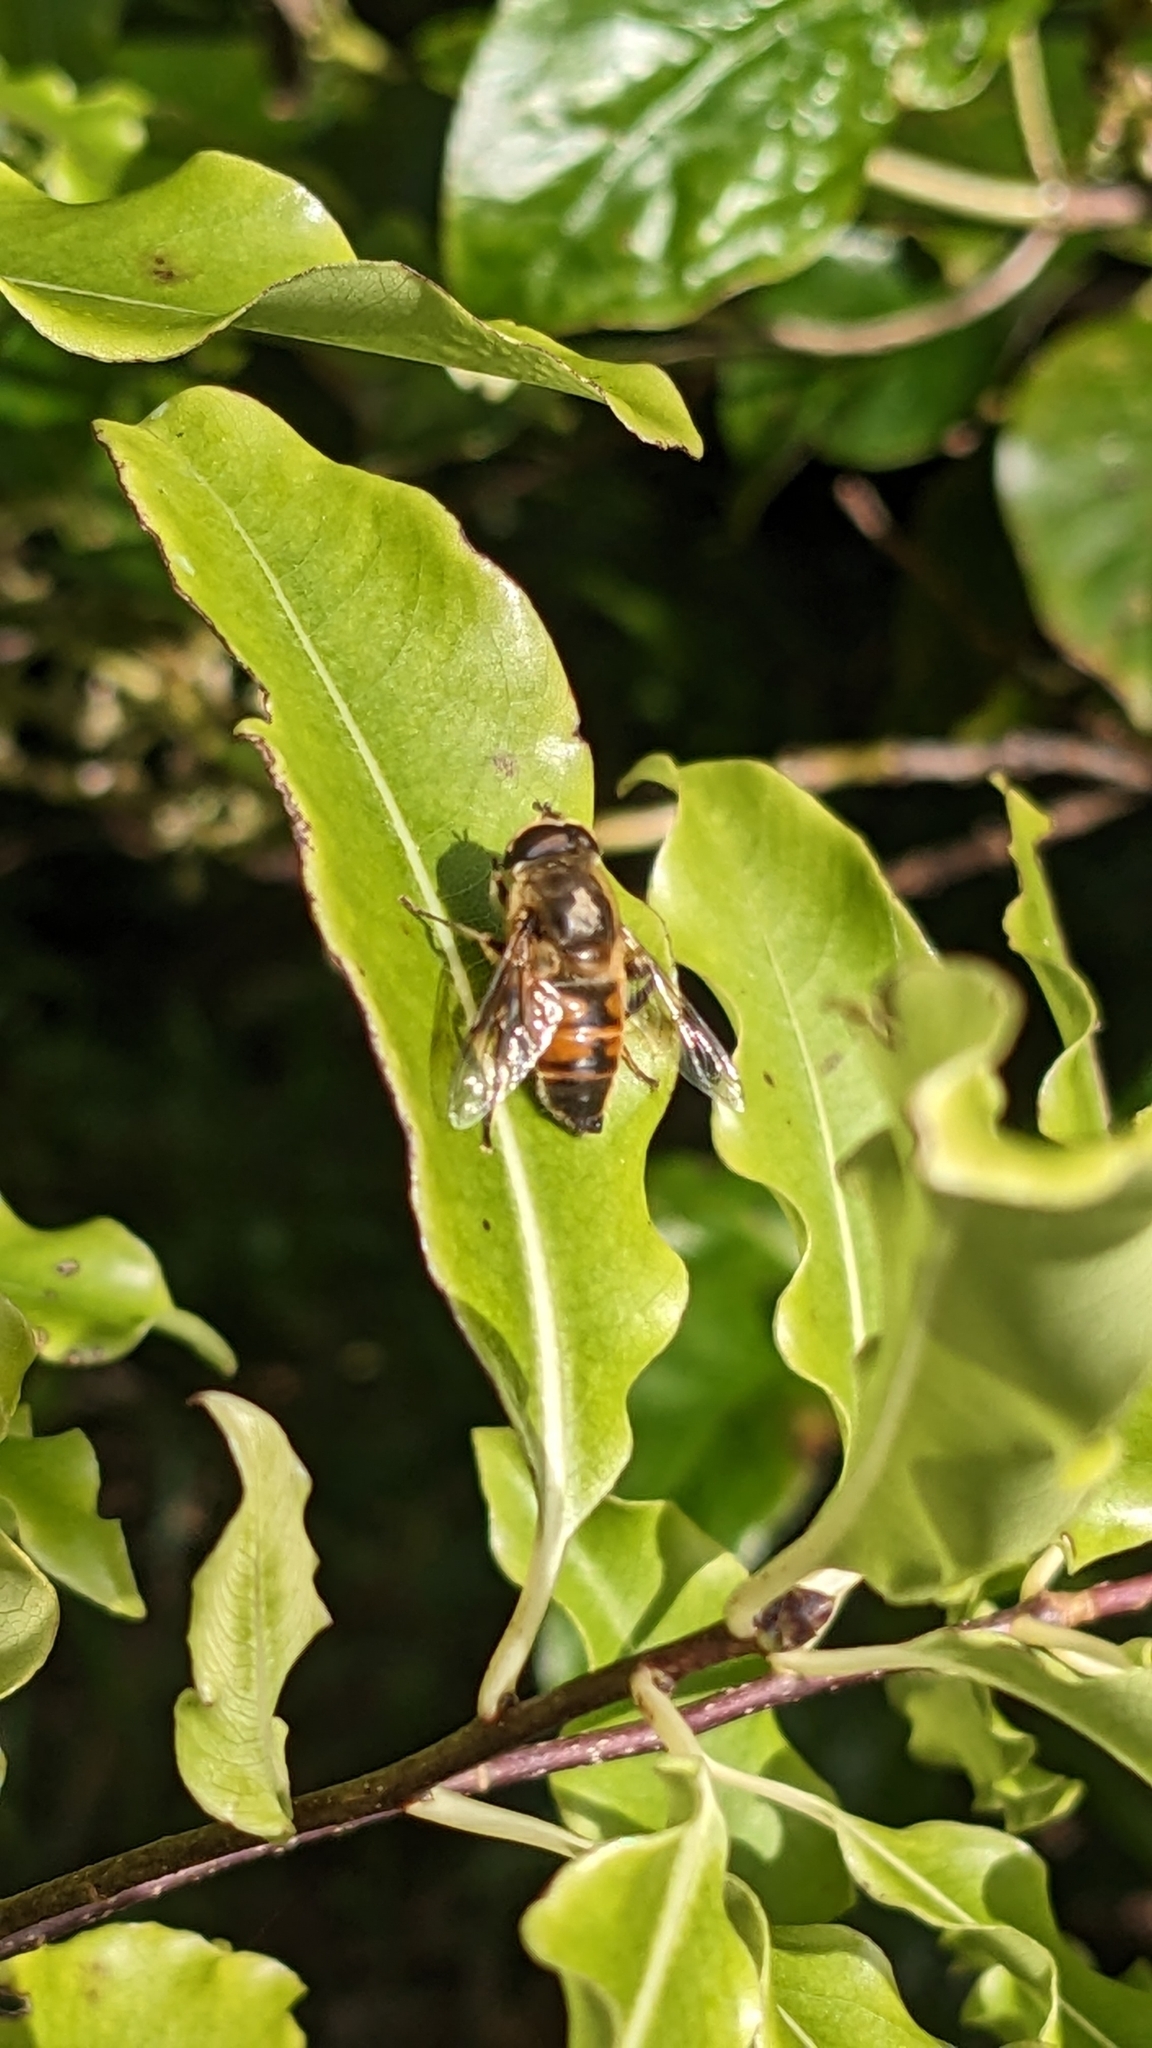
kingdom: Animalia
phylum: Arthropoda
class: Insecta
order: Diptera
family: Syrphidae
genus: Eristalis
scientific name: Eristalis tenax
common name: Drone fly
